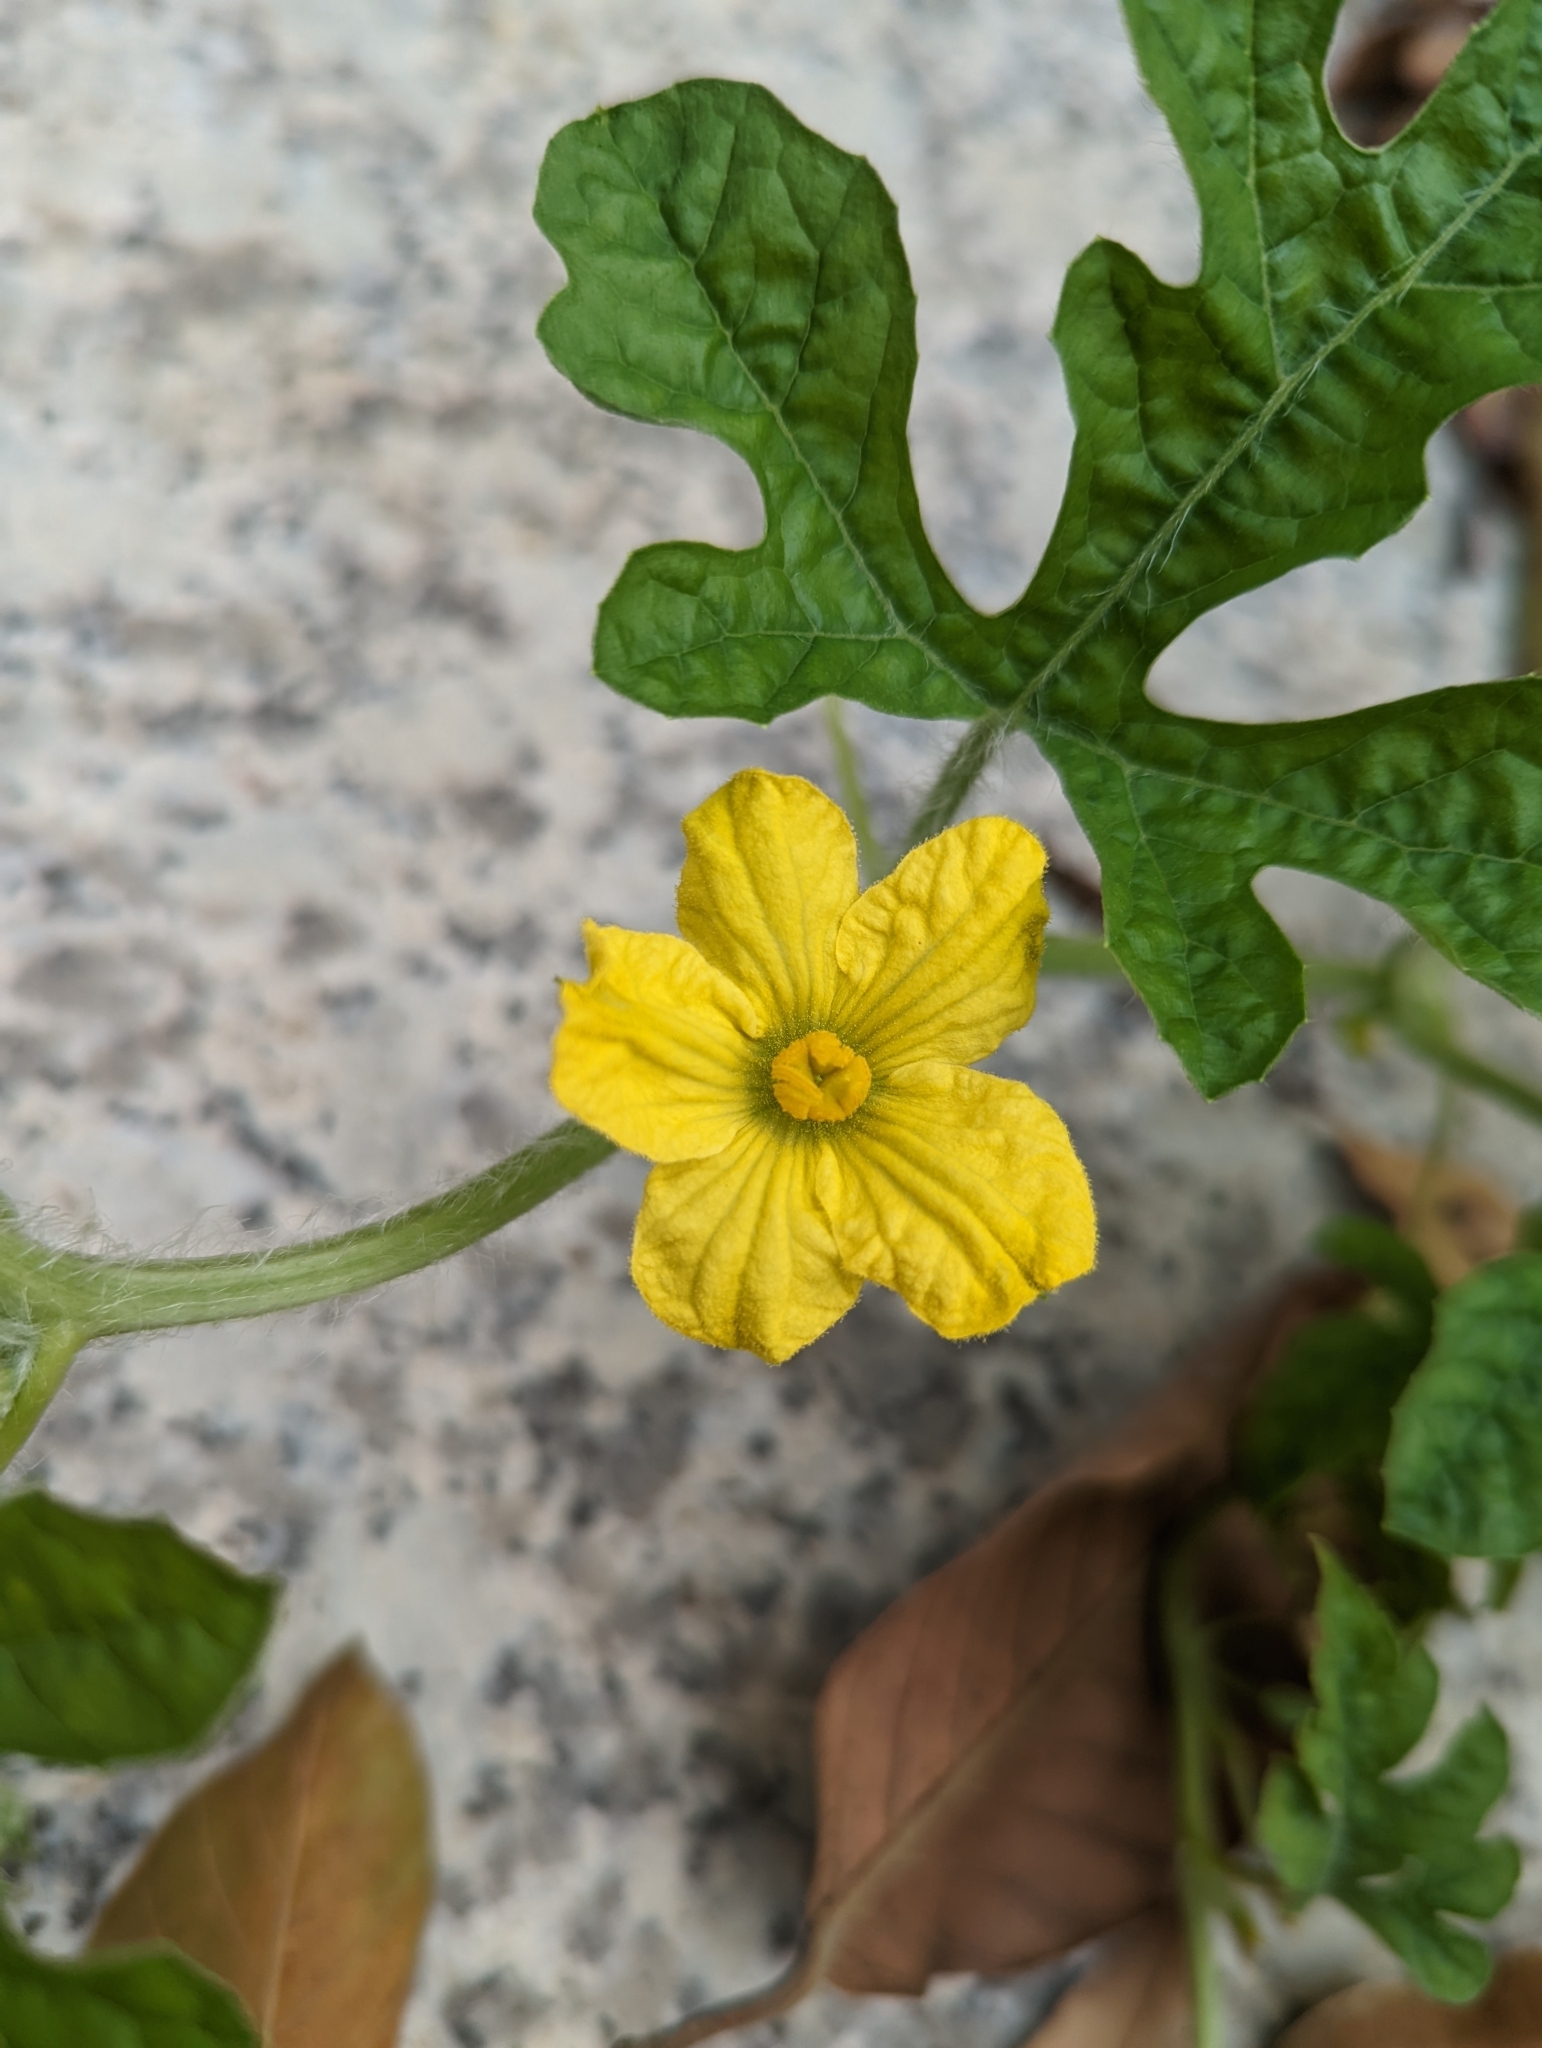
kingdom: Plantae
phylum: Tracheophyta
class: Magnoliopsida
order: Cucurbitales
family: Cucurbitaceae
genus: Citrullus
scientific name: Citrullus lanatus
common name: Watermelon
